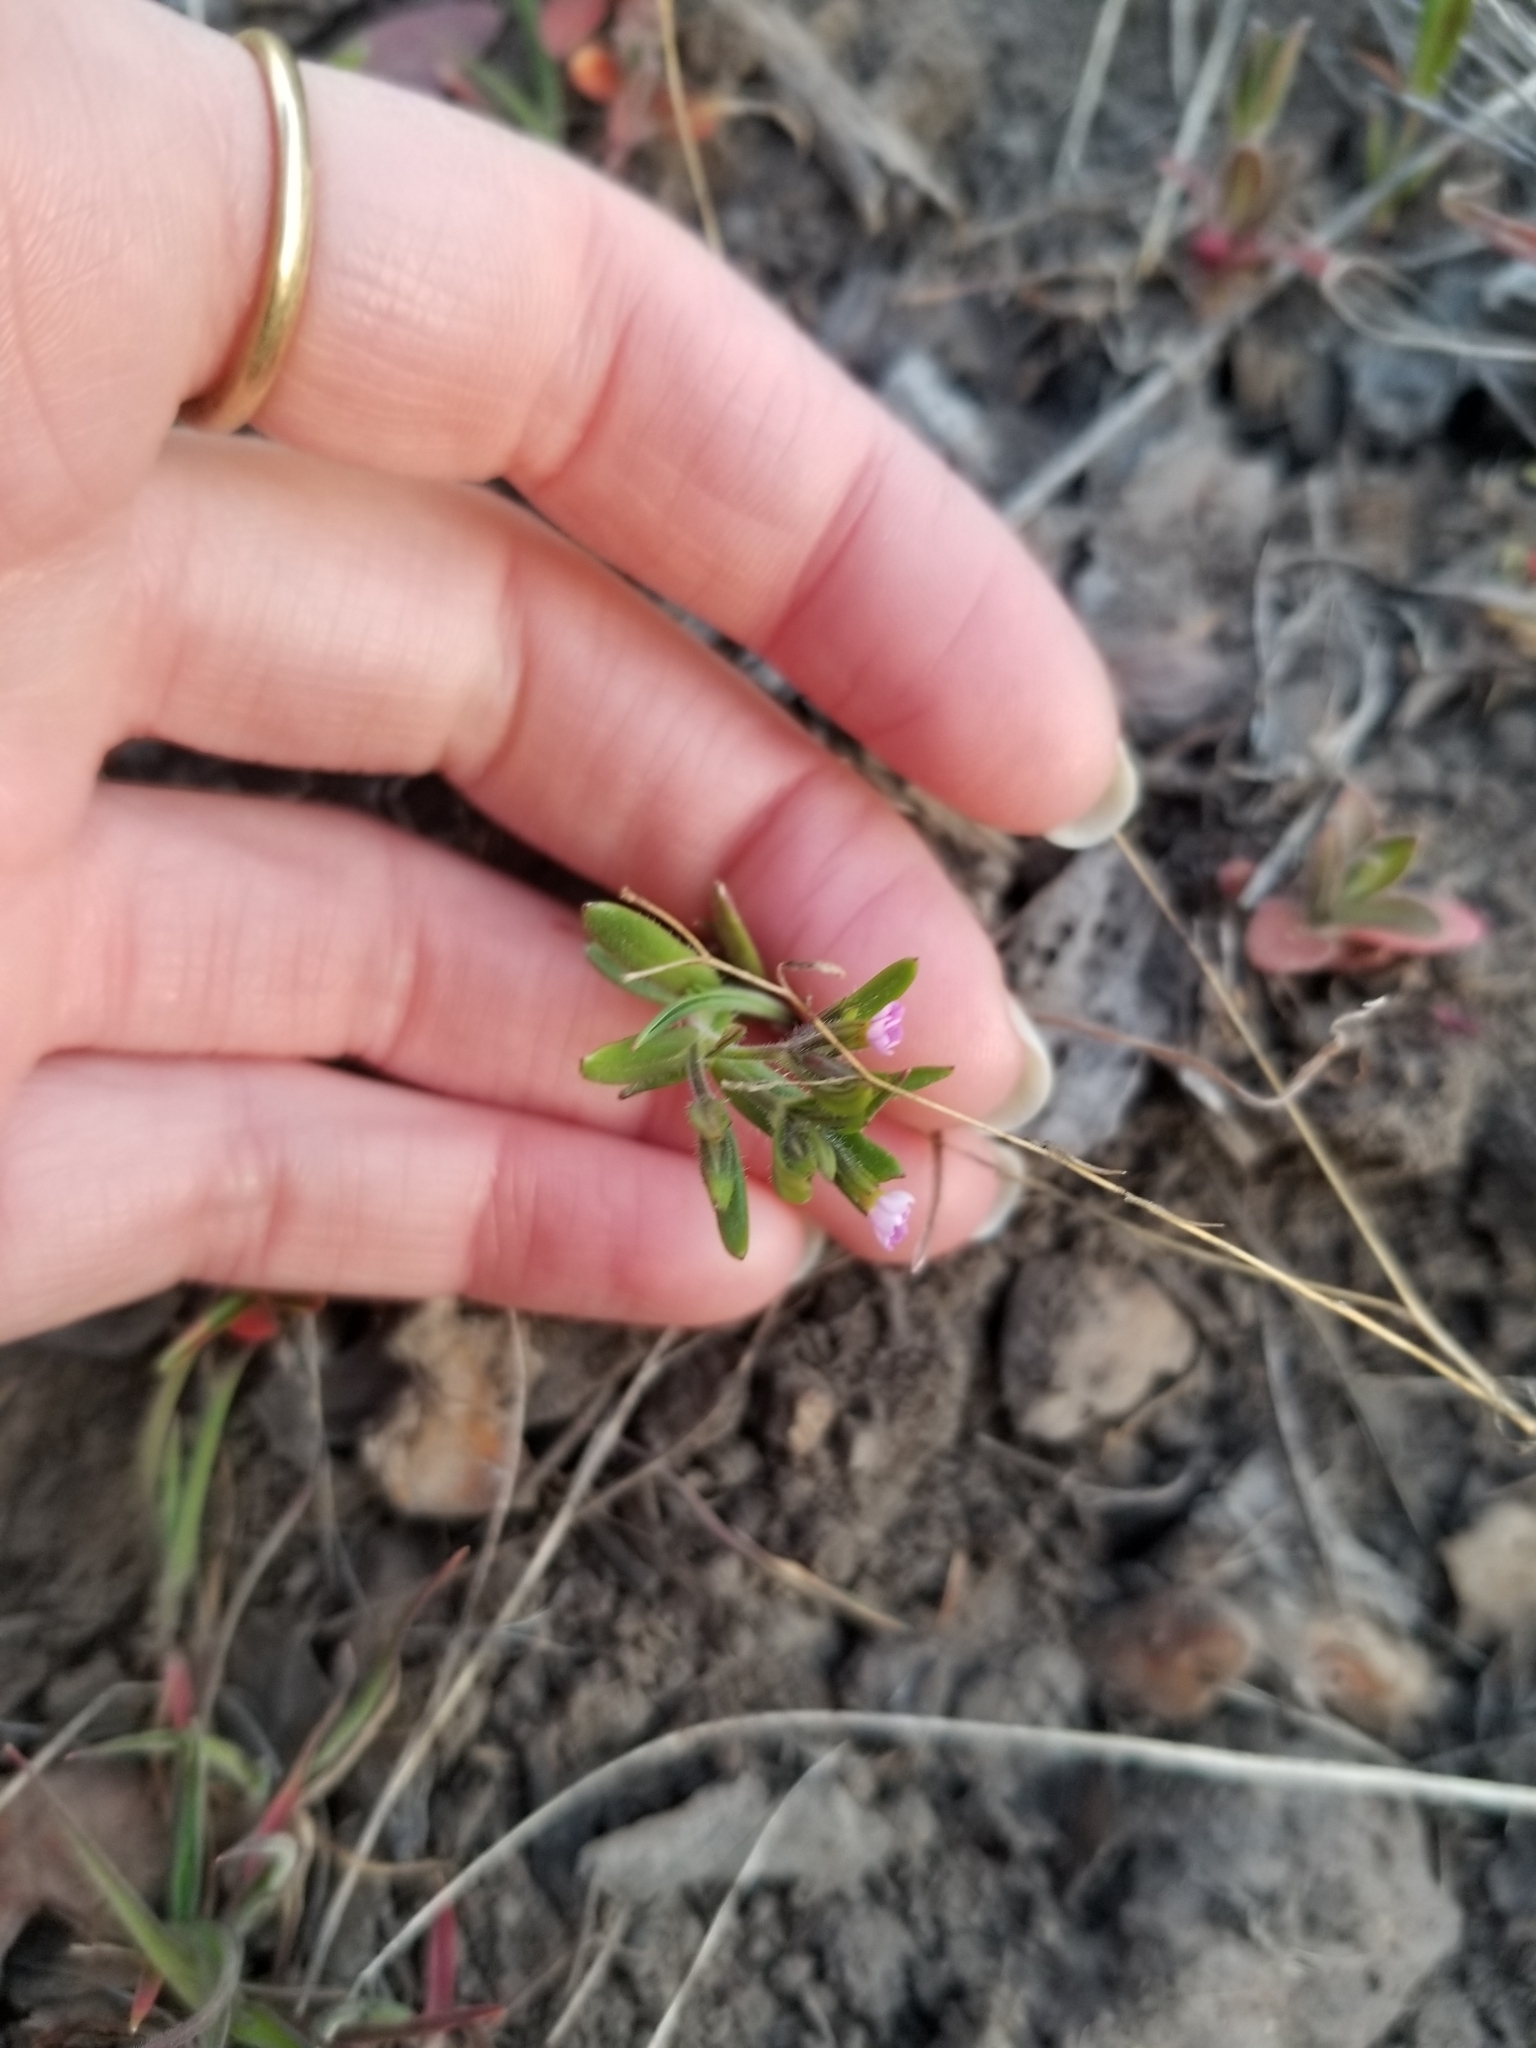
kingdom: Plantae
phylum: Tracheophyta
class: Magnoliopsida
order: Ericales
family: Polemoniaceae
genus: Phlox
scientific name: Phlox gracilis
